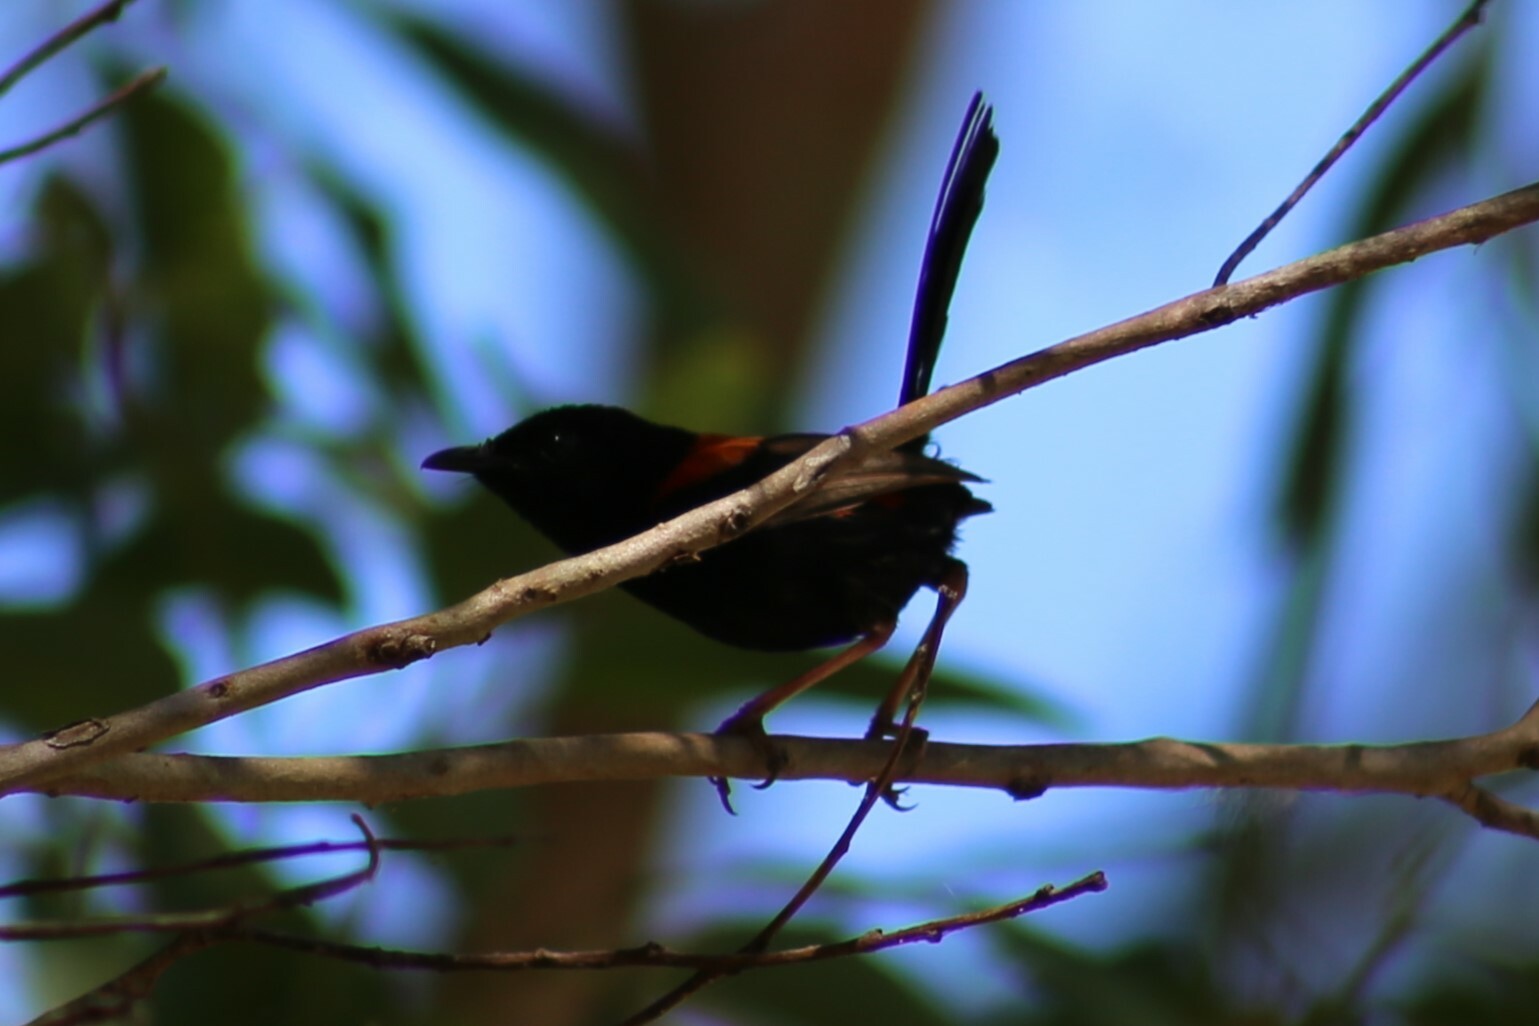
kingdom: Animalia
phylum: Chordata
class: Aves
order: Passeriformes
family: Maluridae
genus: Malurus
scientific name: Malurus melanocephalus
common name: Red-backed fairywren
